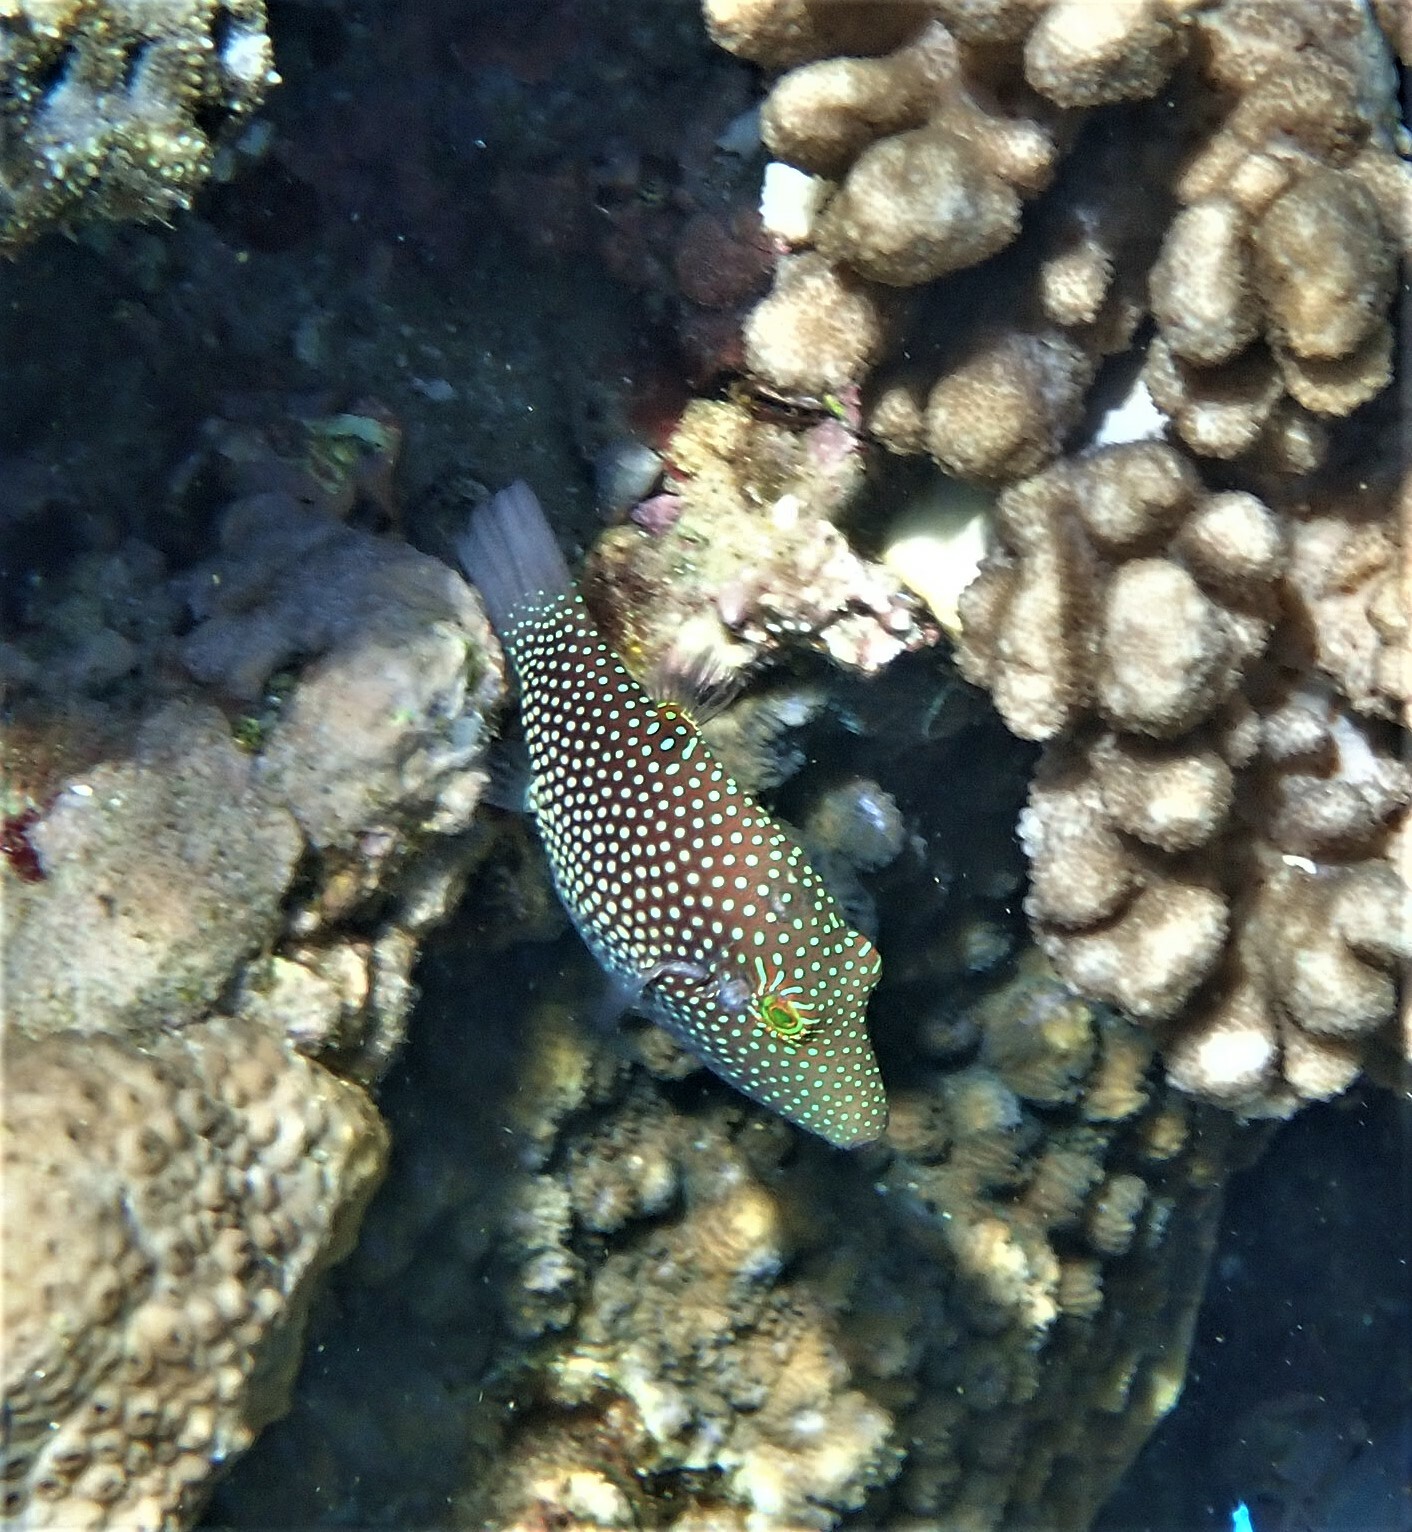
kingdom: Animalia
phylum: Chordata
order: Tetraodontiformes
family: Tetraodontidae
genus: Canthigaster
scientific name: Canthigaster janthinoptera
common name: Honeycomb toby
